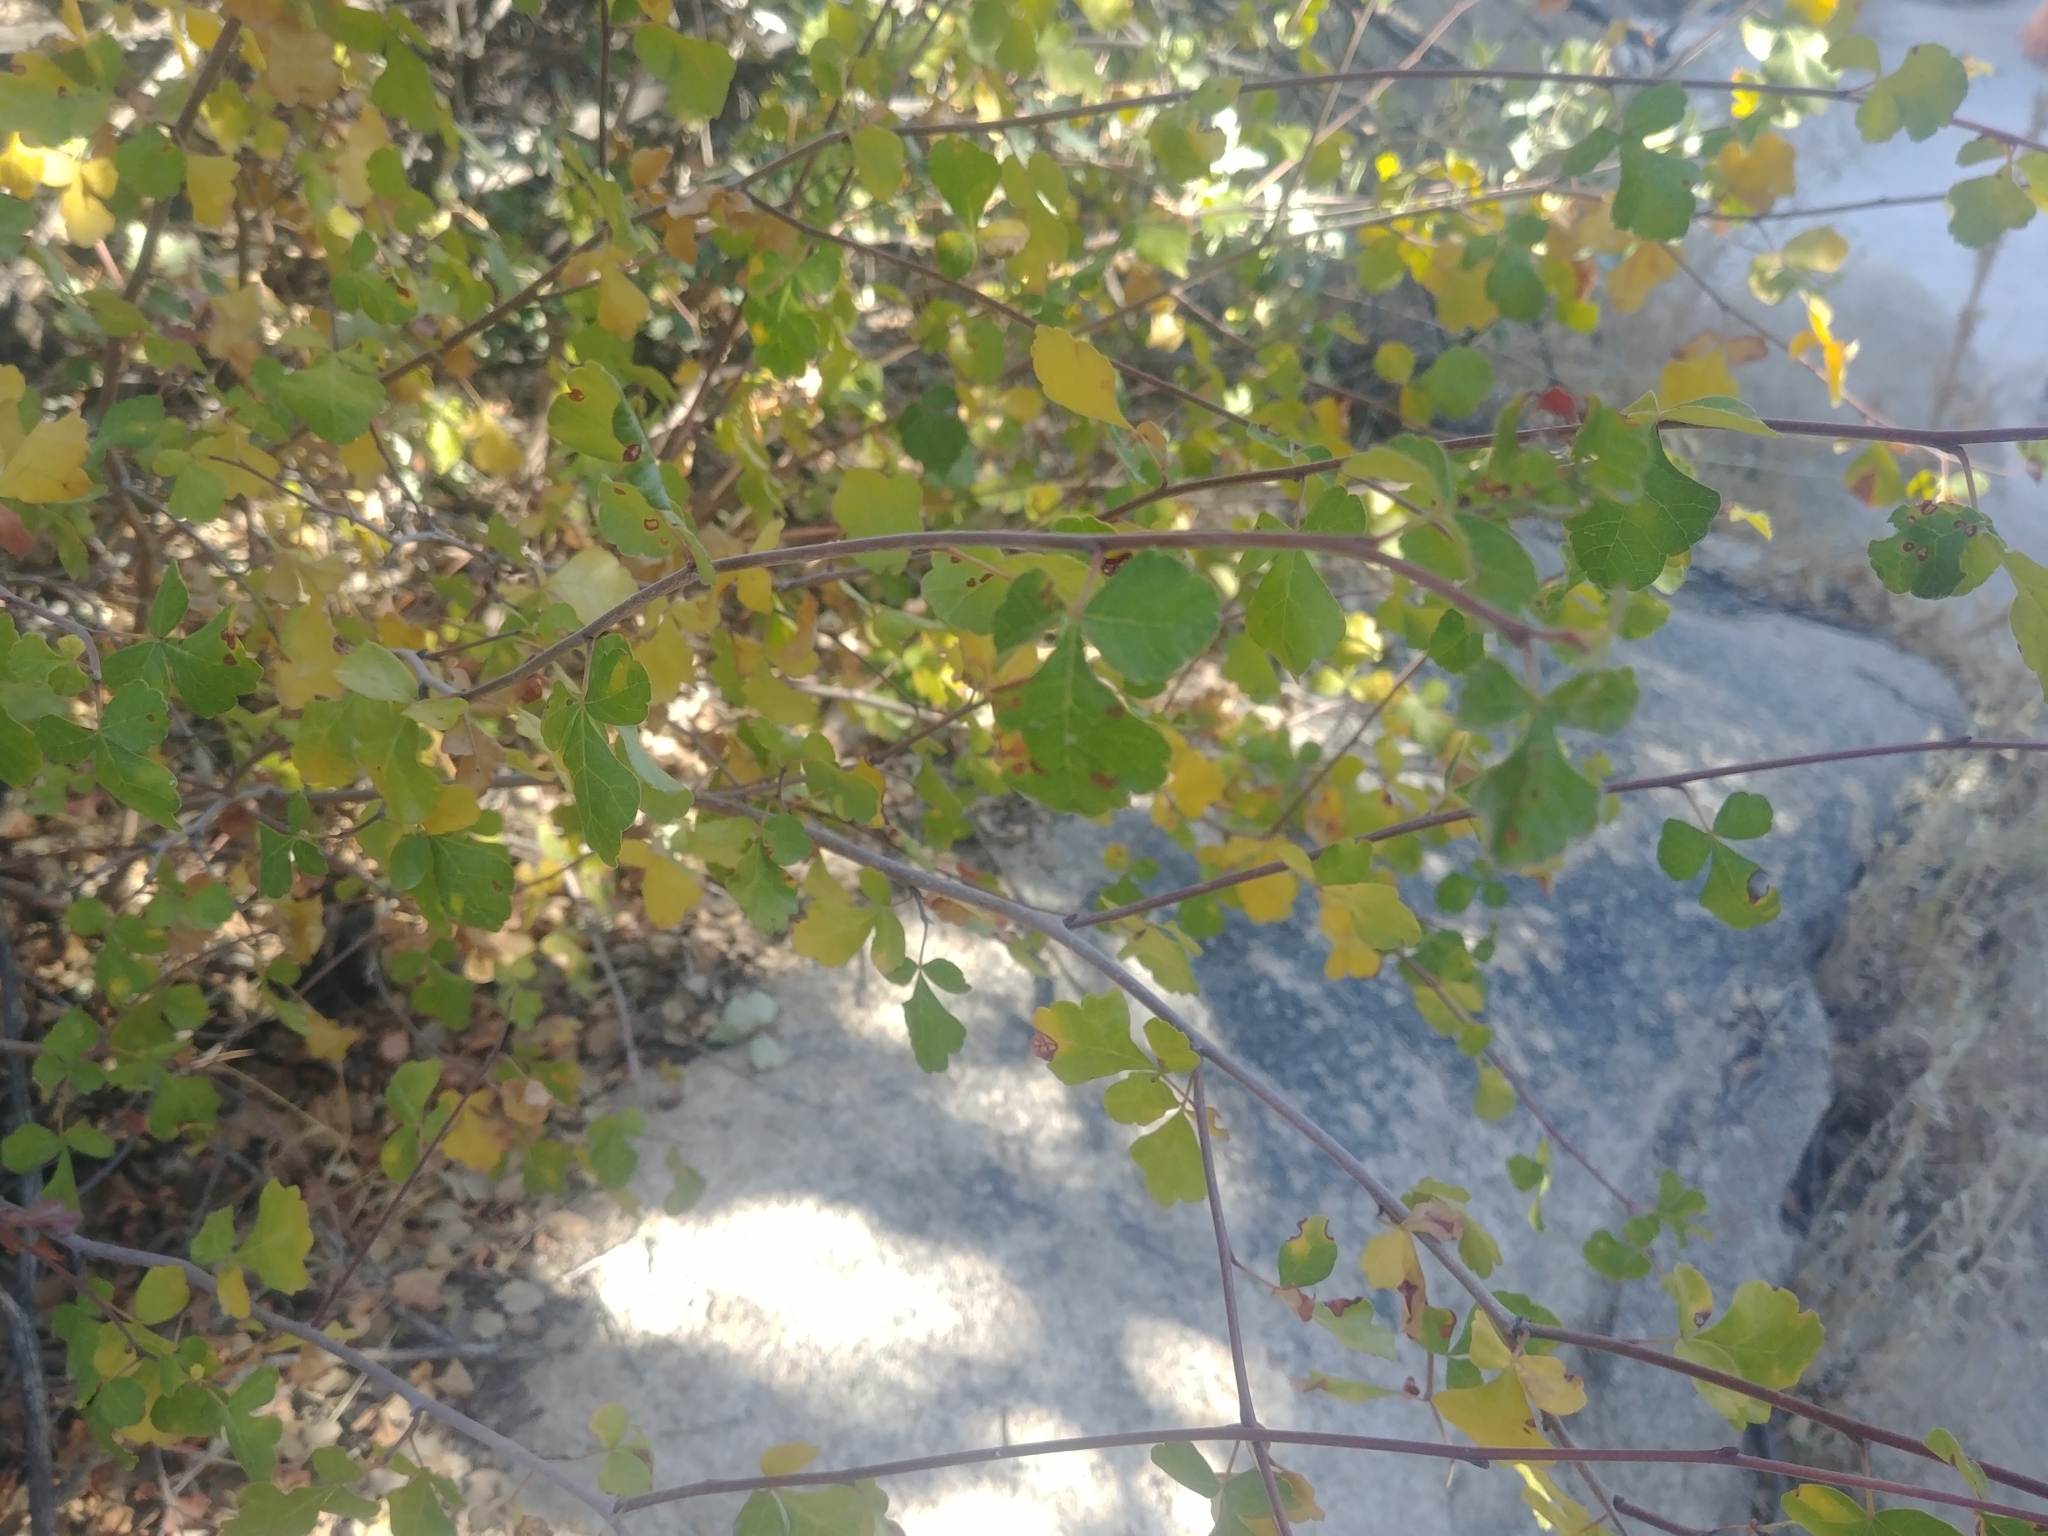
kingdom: Plantae
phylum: Tracheophyta
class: Magnoliopsida
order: Sapindales
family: Anacardiaceae
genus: Rhus
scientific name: Rhus aromatica
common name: Aromatic sumac
